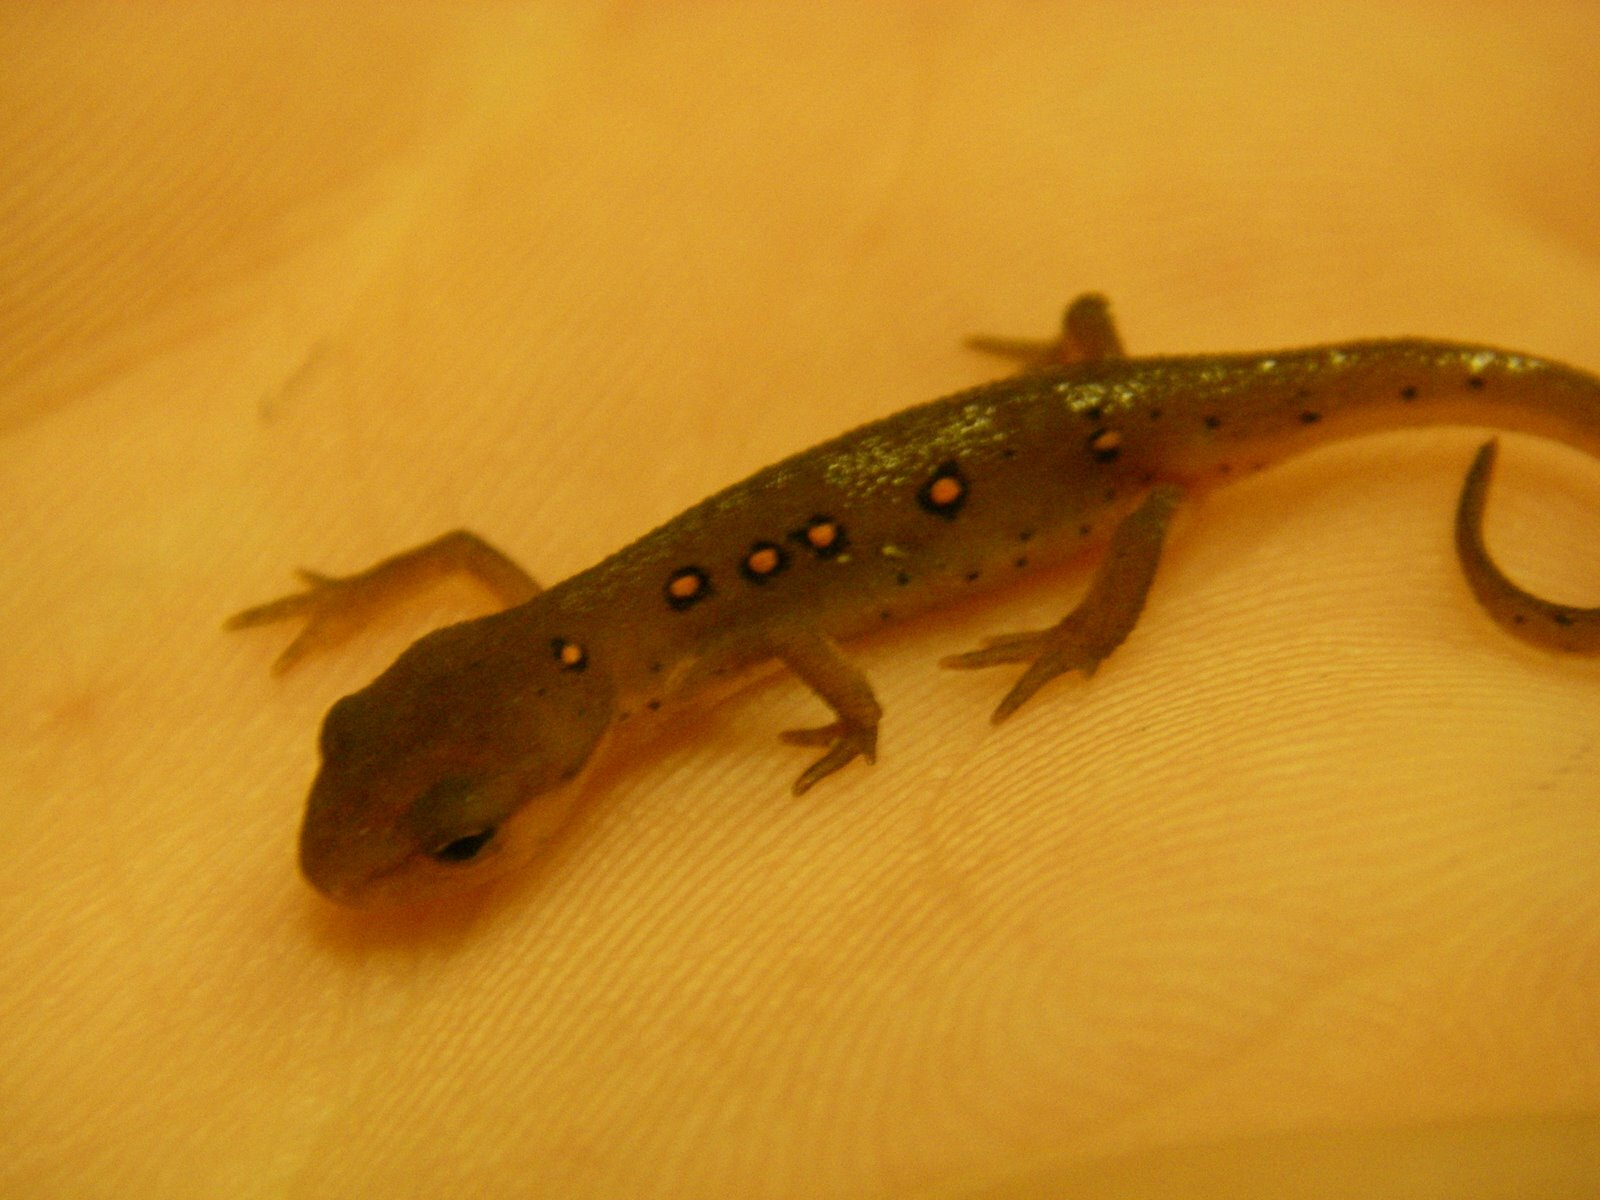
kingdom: Animalia
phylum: Chordata
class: Amphibia
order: Caudata
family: Salamandridae
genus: Notophthalmus
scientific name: Notophthalmus viridescens
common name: Eastern newt
